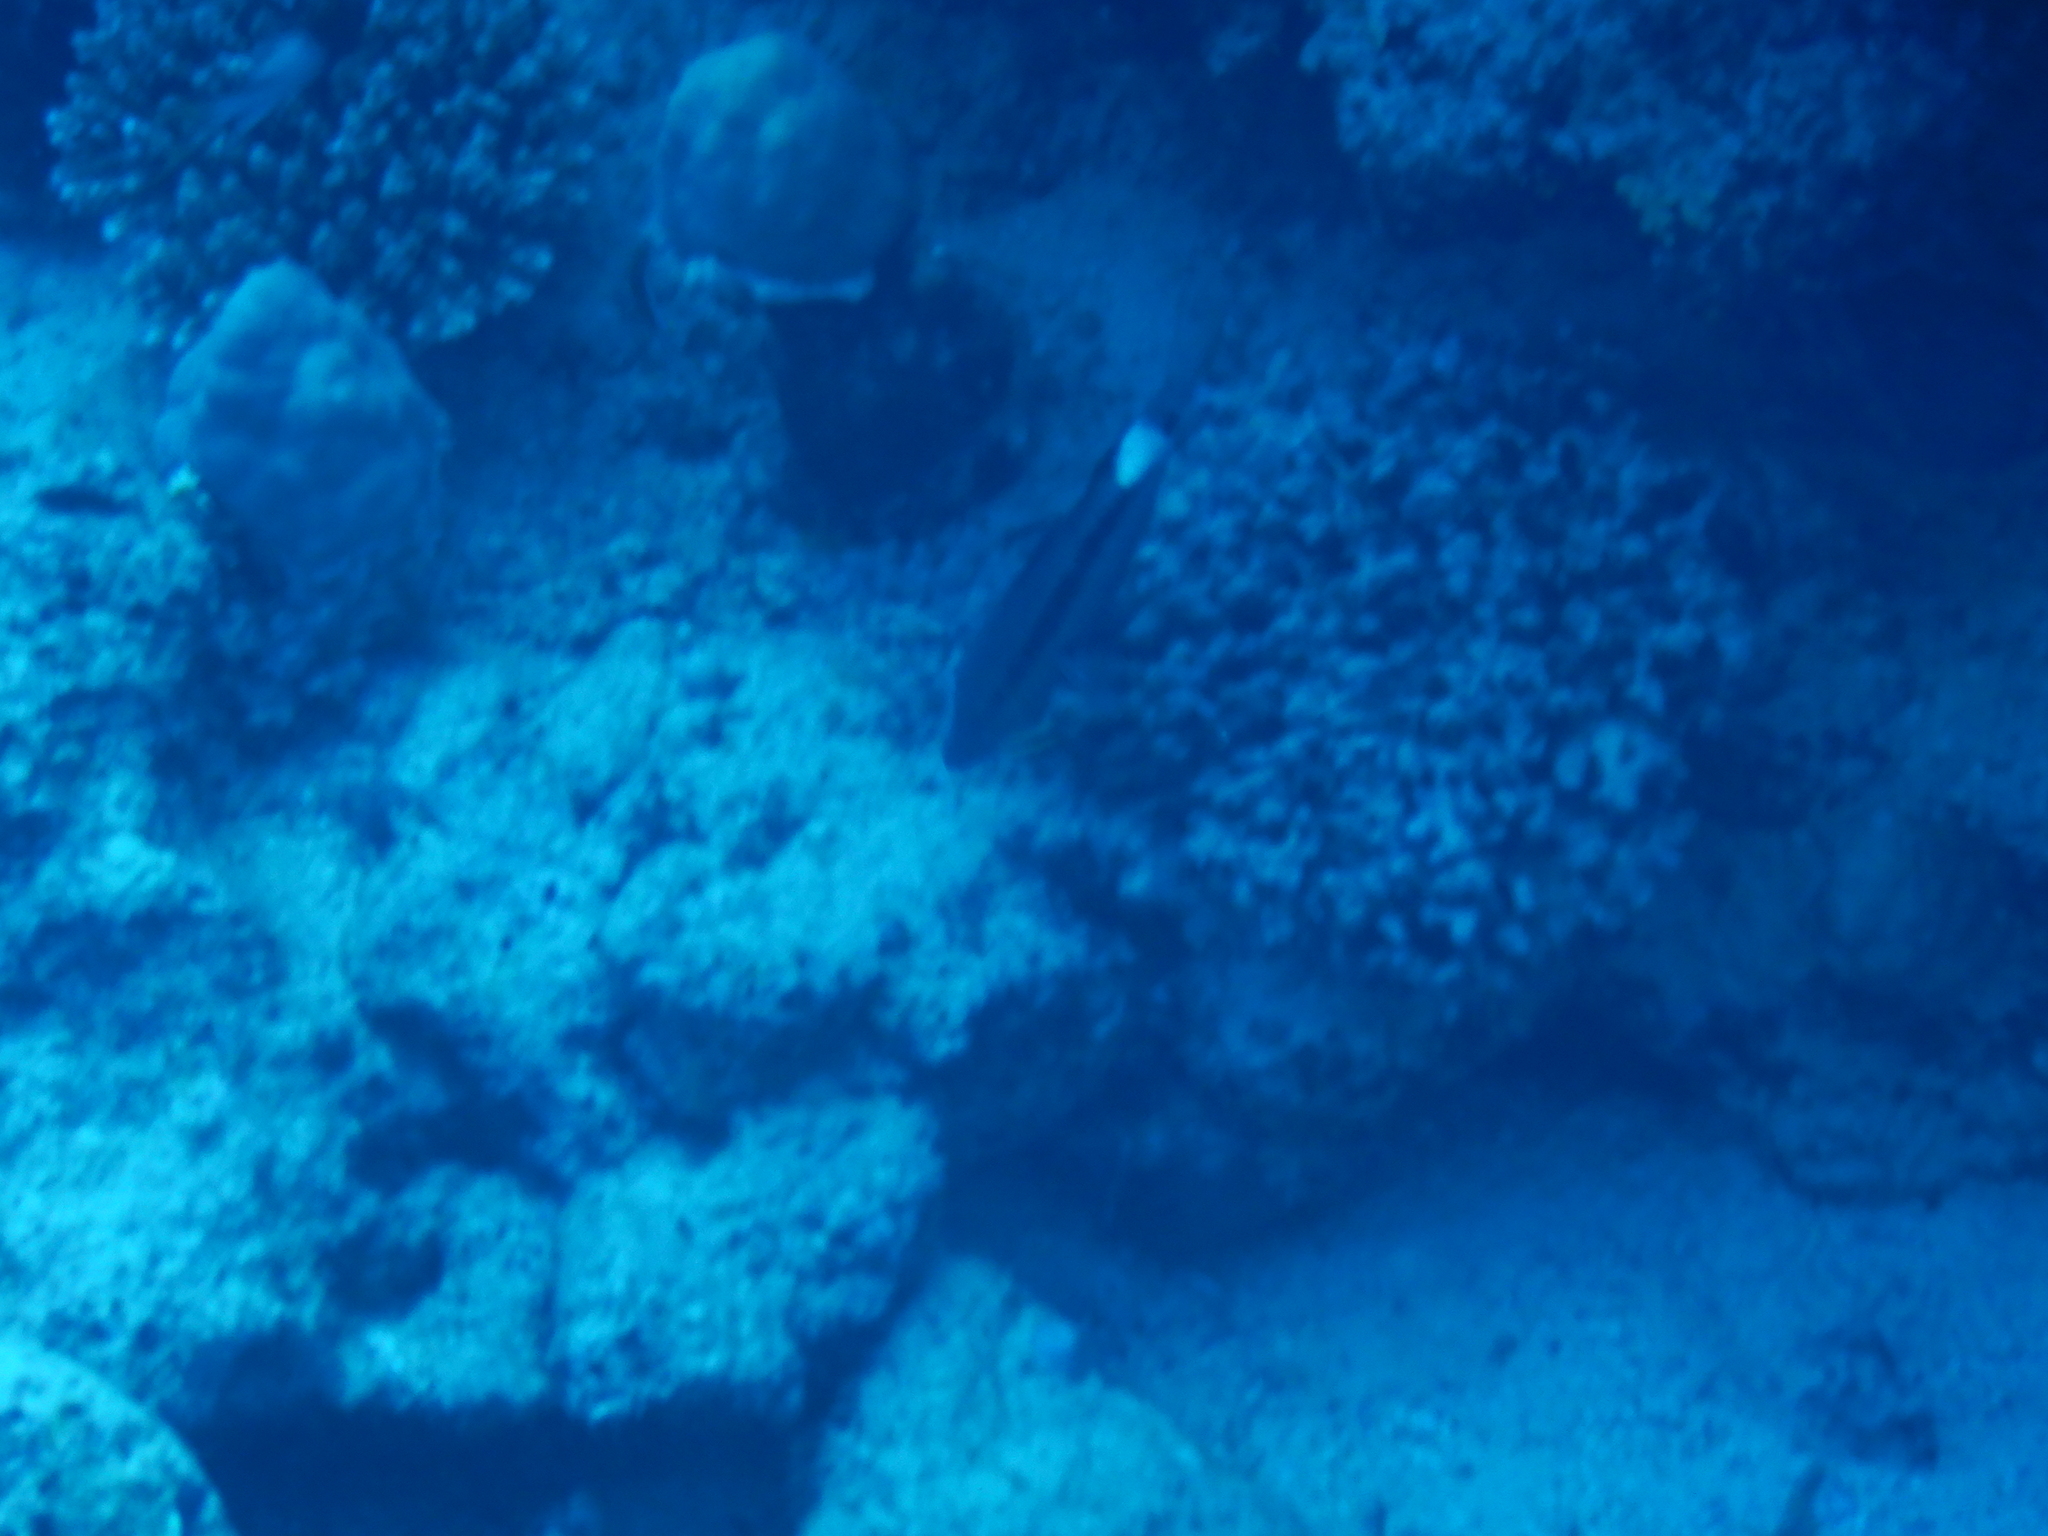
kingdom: Animalia
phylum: Chordata
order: Perciformes
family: Mullidae
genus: Parupeneus
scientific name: Parupeneus macronemus
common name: Long-barbel goatfish
